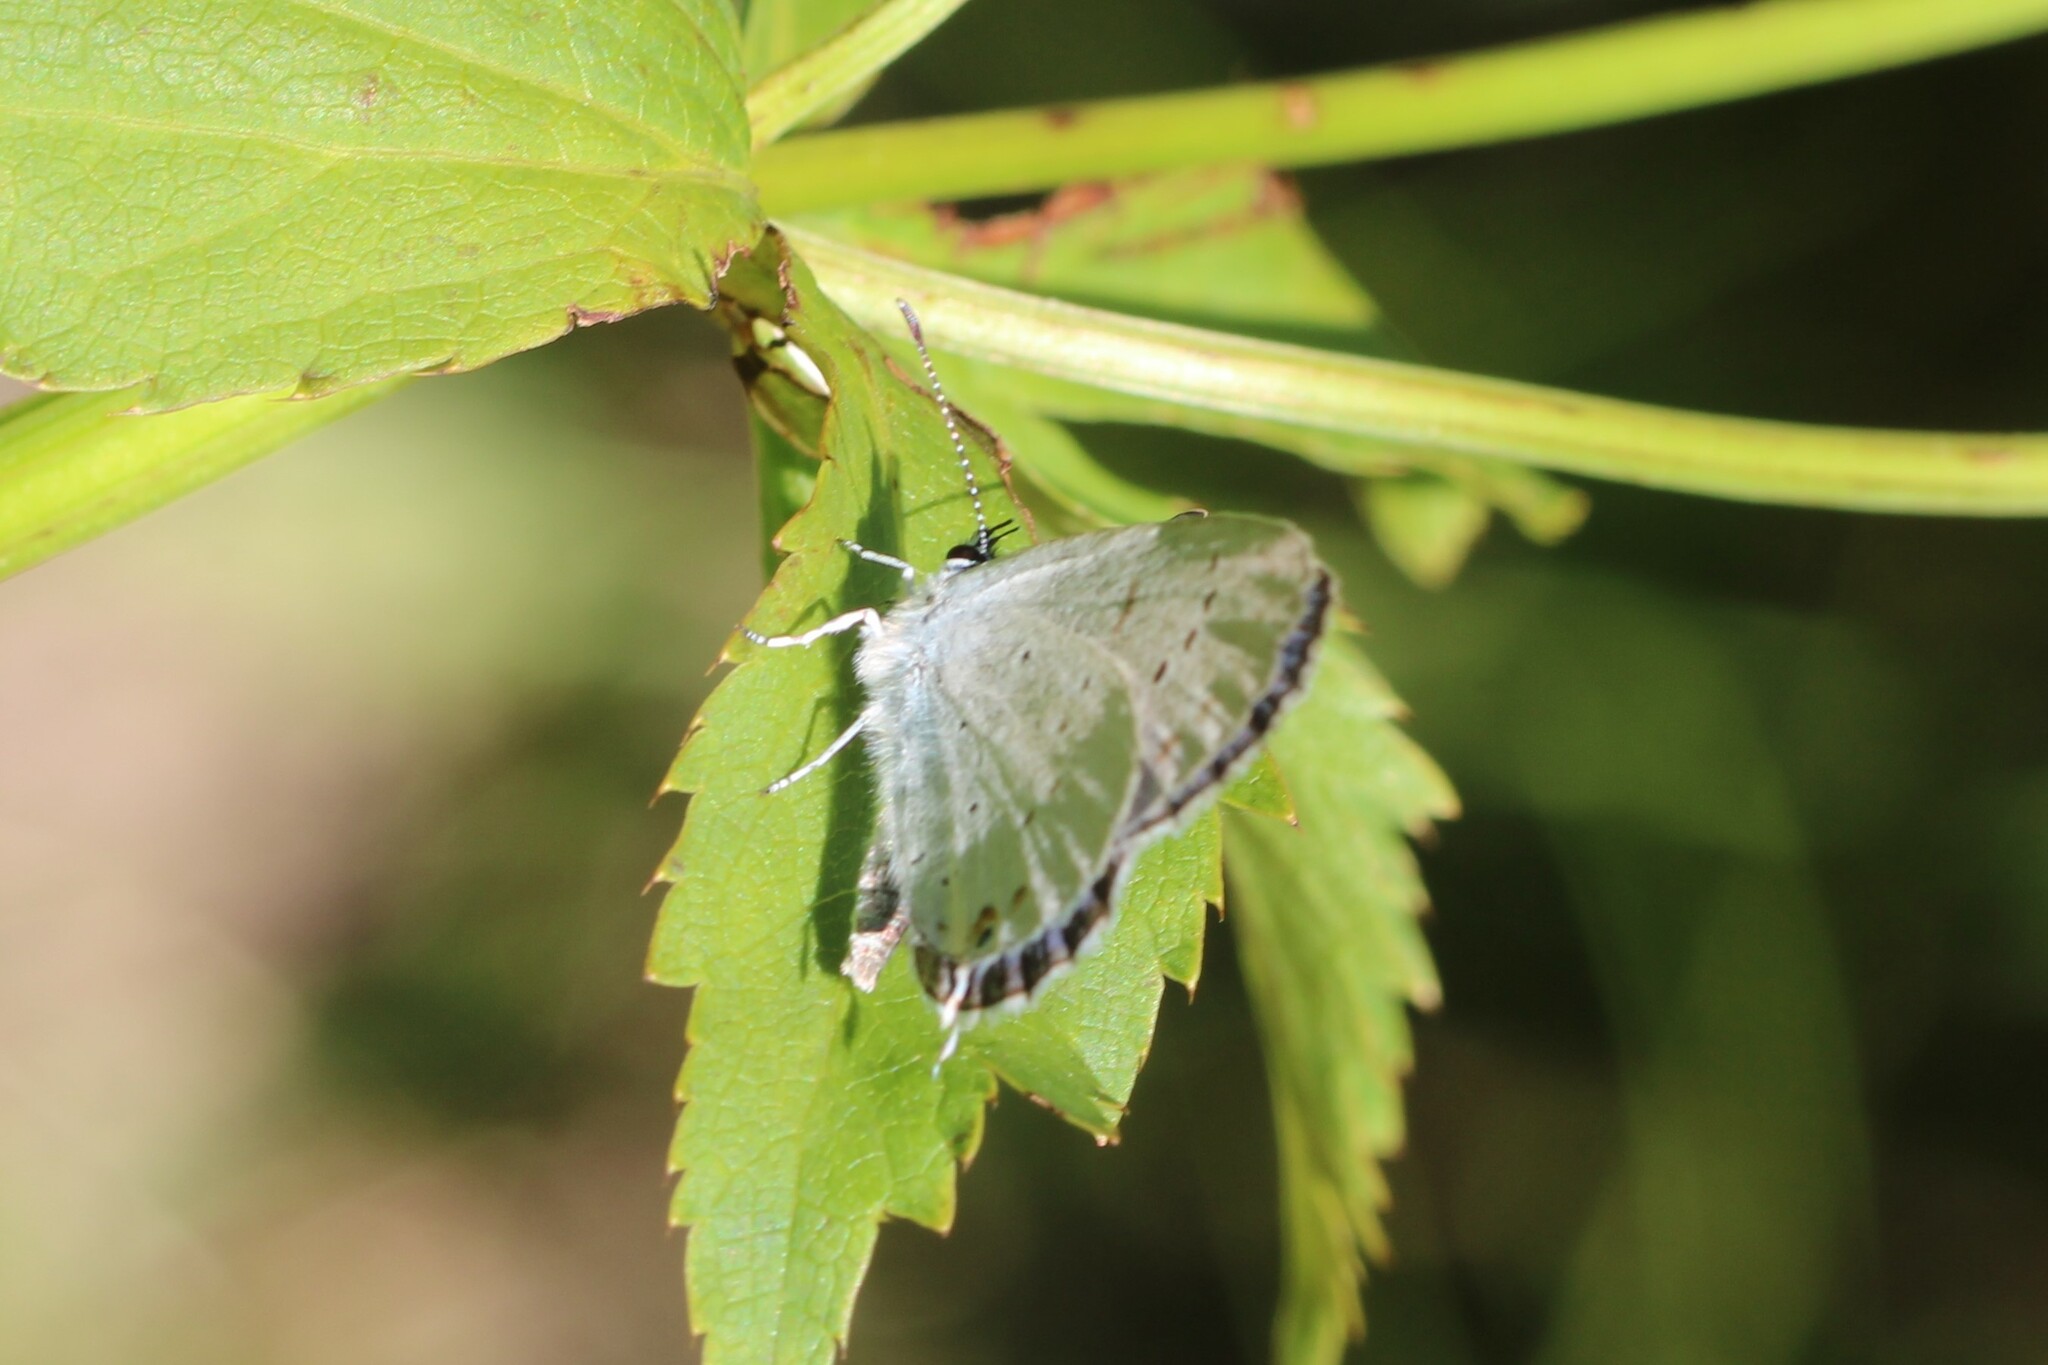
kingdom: Animalia
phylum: Arthropoda
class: Insecta
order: Lepidoptera
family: Lycaenidae
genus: Elkalyce
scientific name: Elkalyce amyntula
